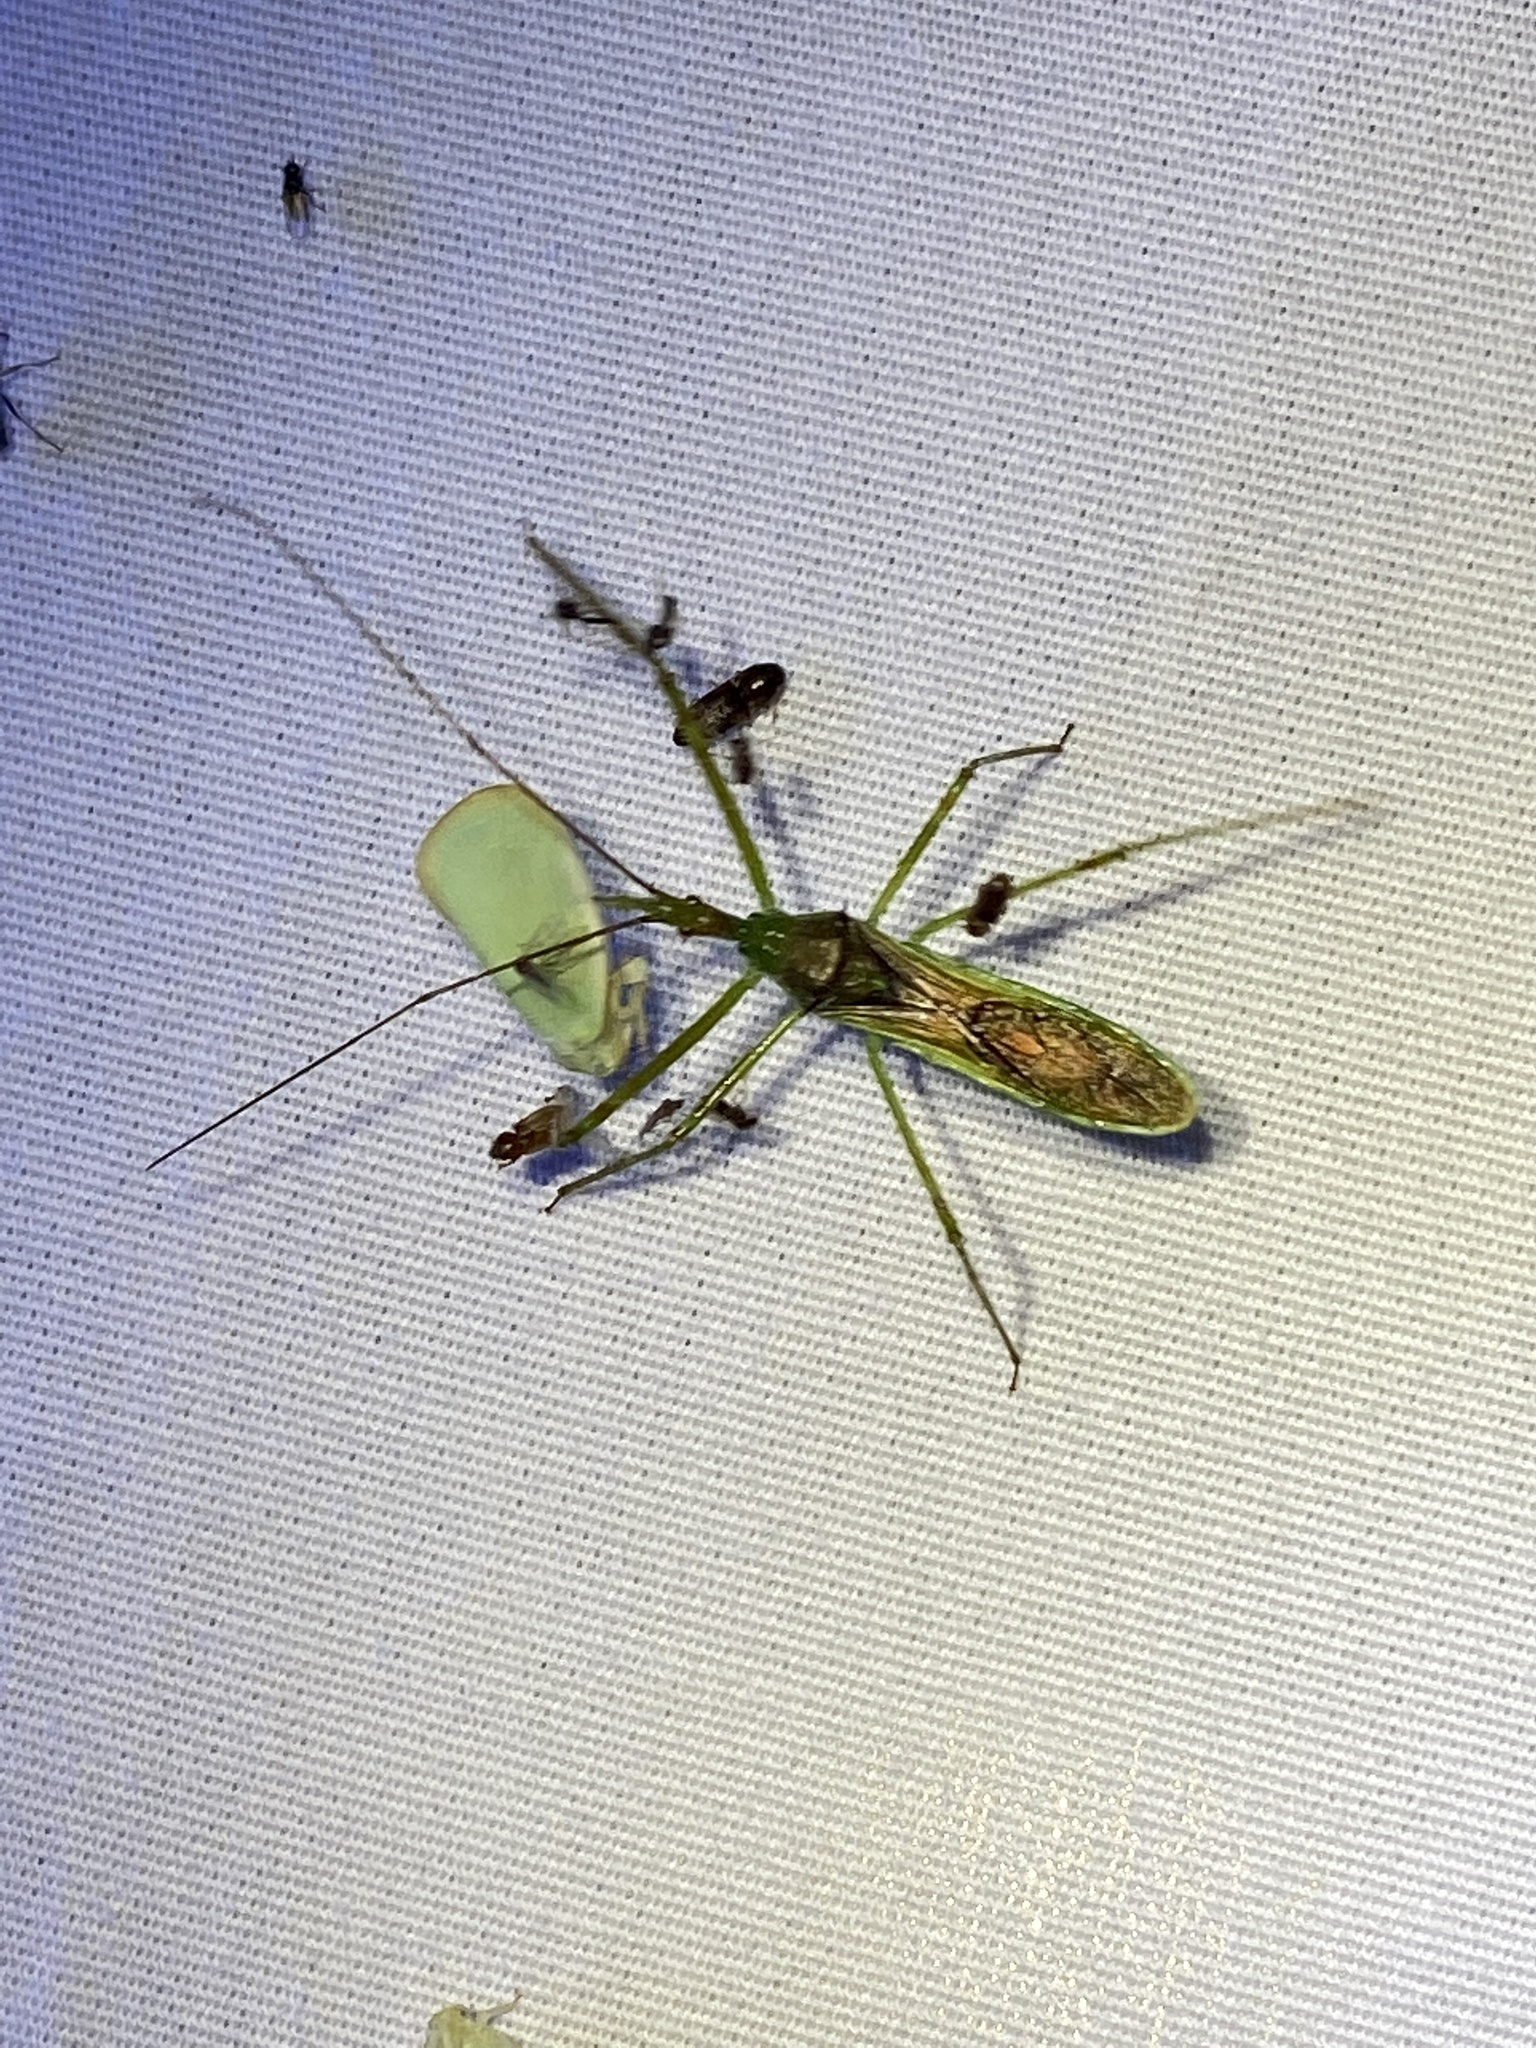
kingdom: Animalia
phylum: Arthropoda
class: Insecta
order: Hemiptera
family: Reduviidae
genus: Zelus
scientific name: Zelus luridus
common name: Pale green assassin bug
